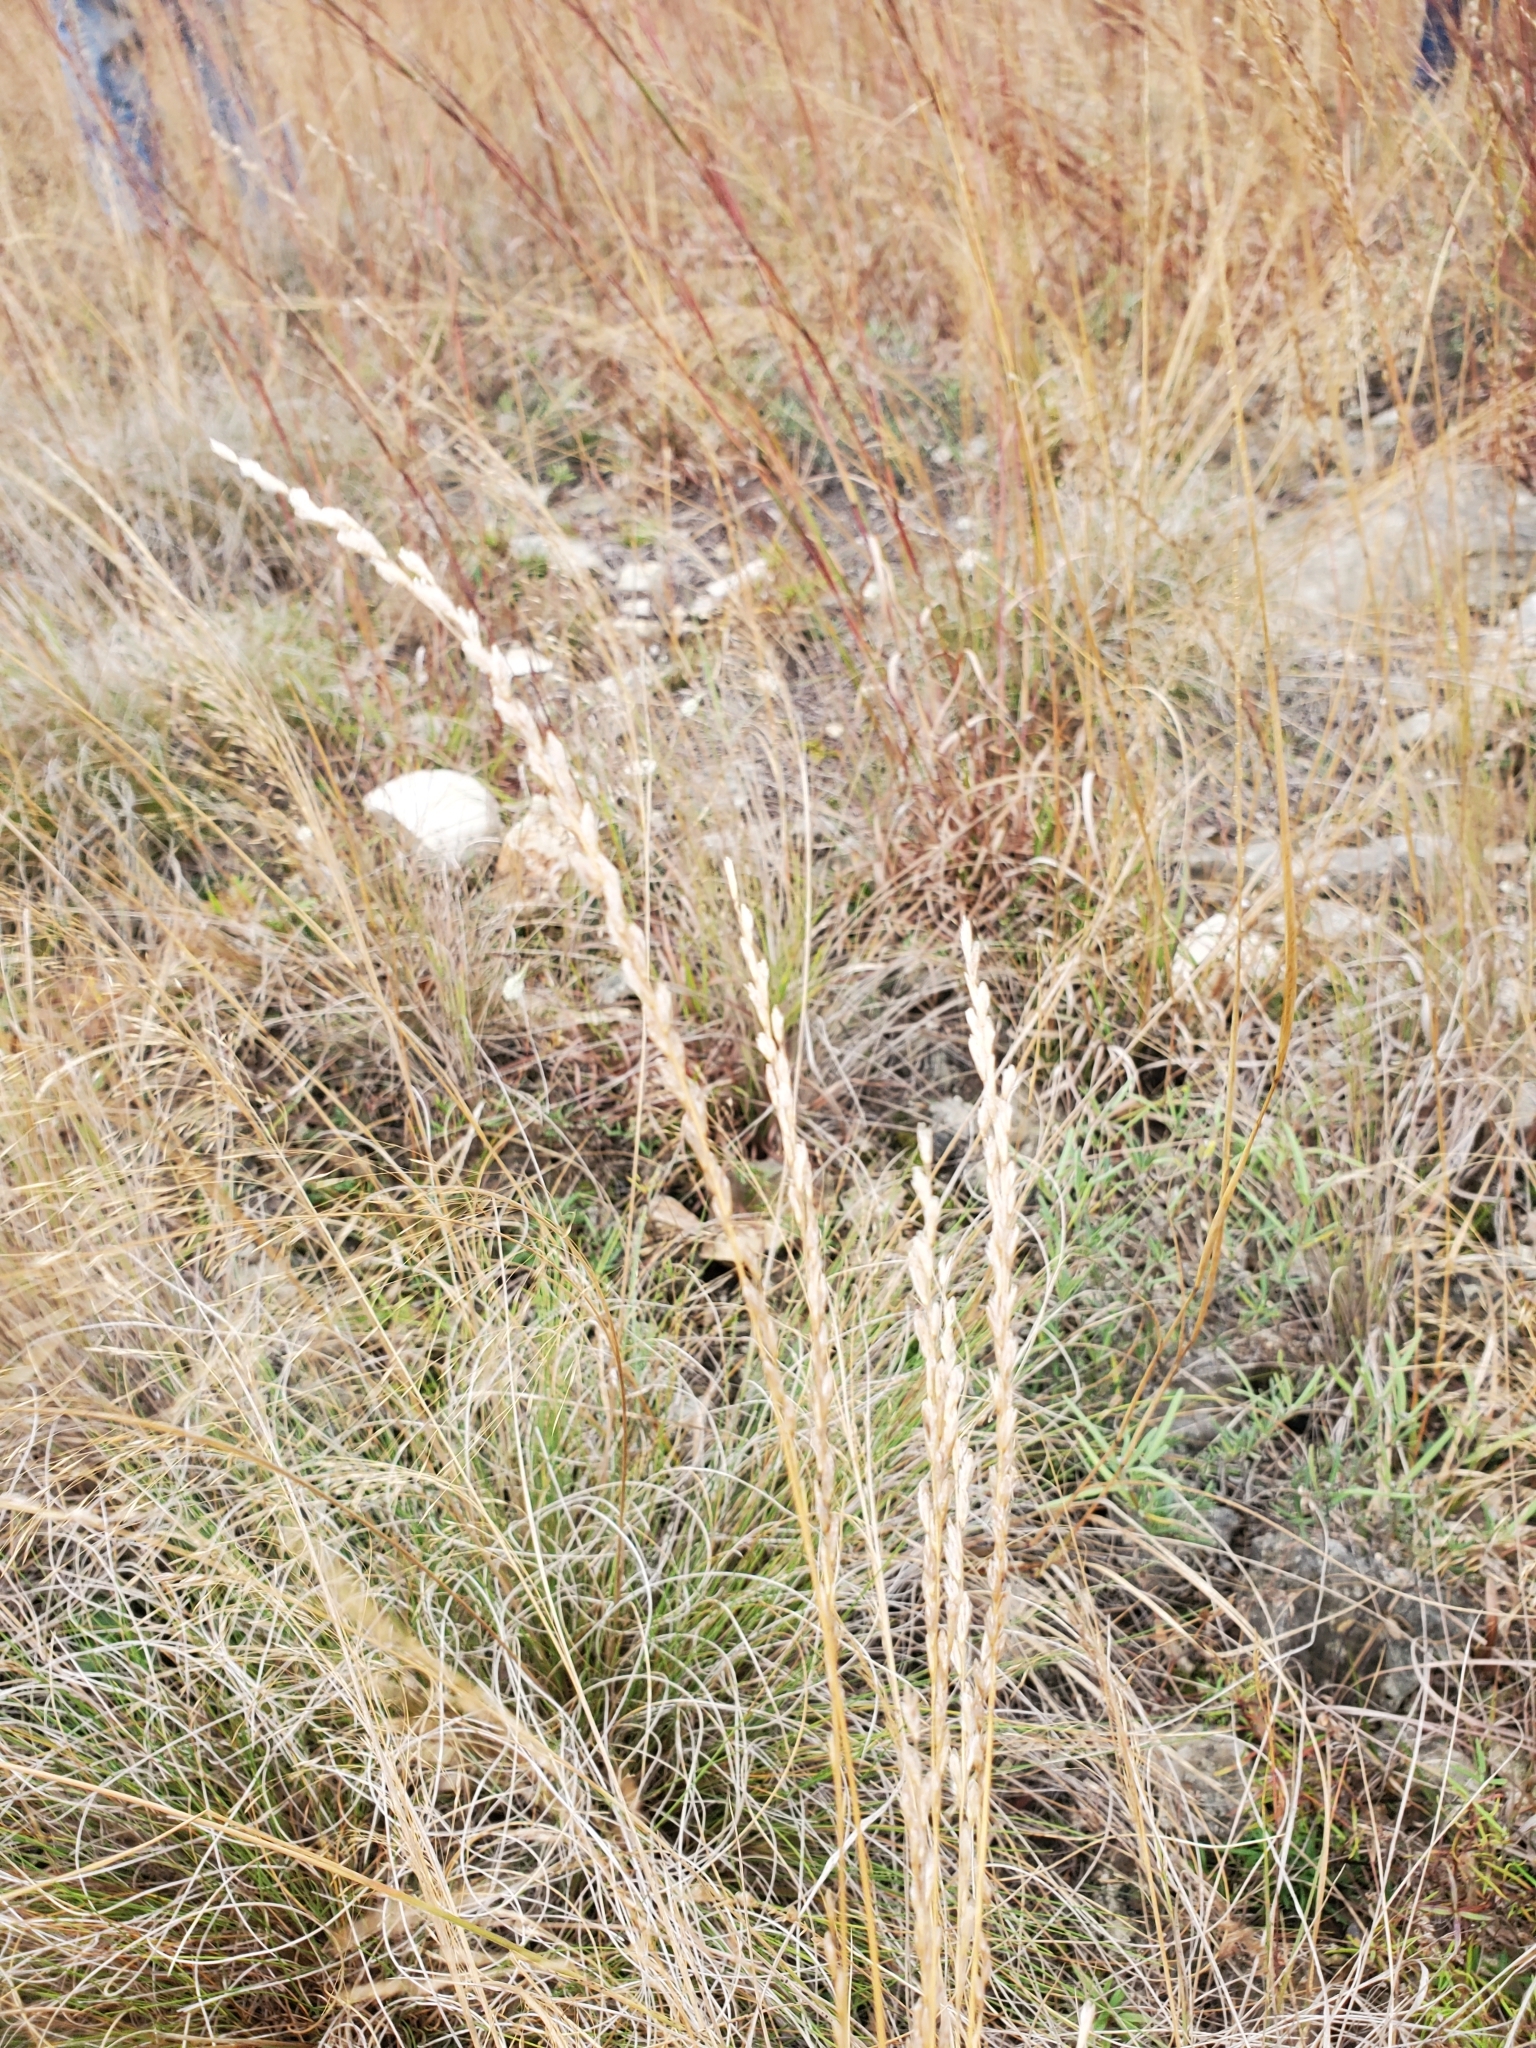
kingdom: Plantae
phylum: Tracheophyta
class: Liliopsida
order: Poales
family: Poaceae
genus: Tridentopsis
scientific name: Tridentopsis mutica
